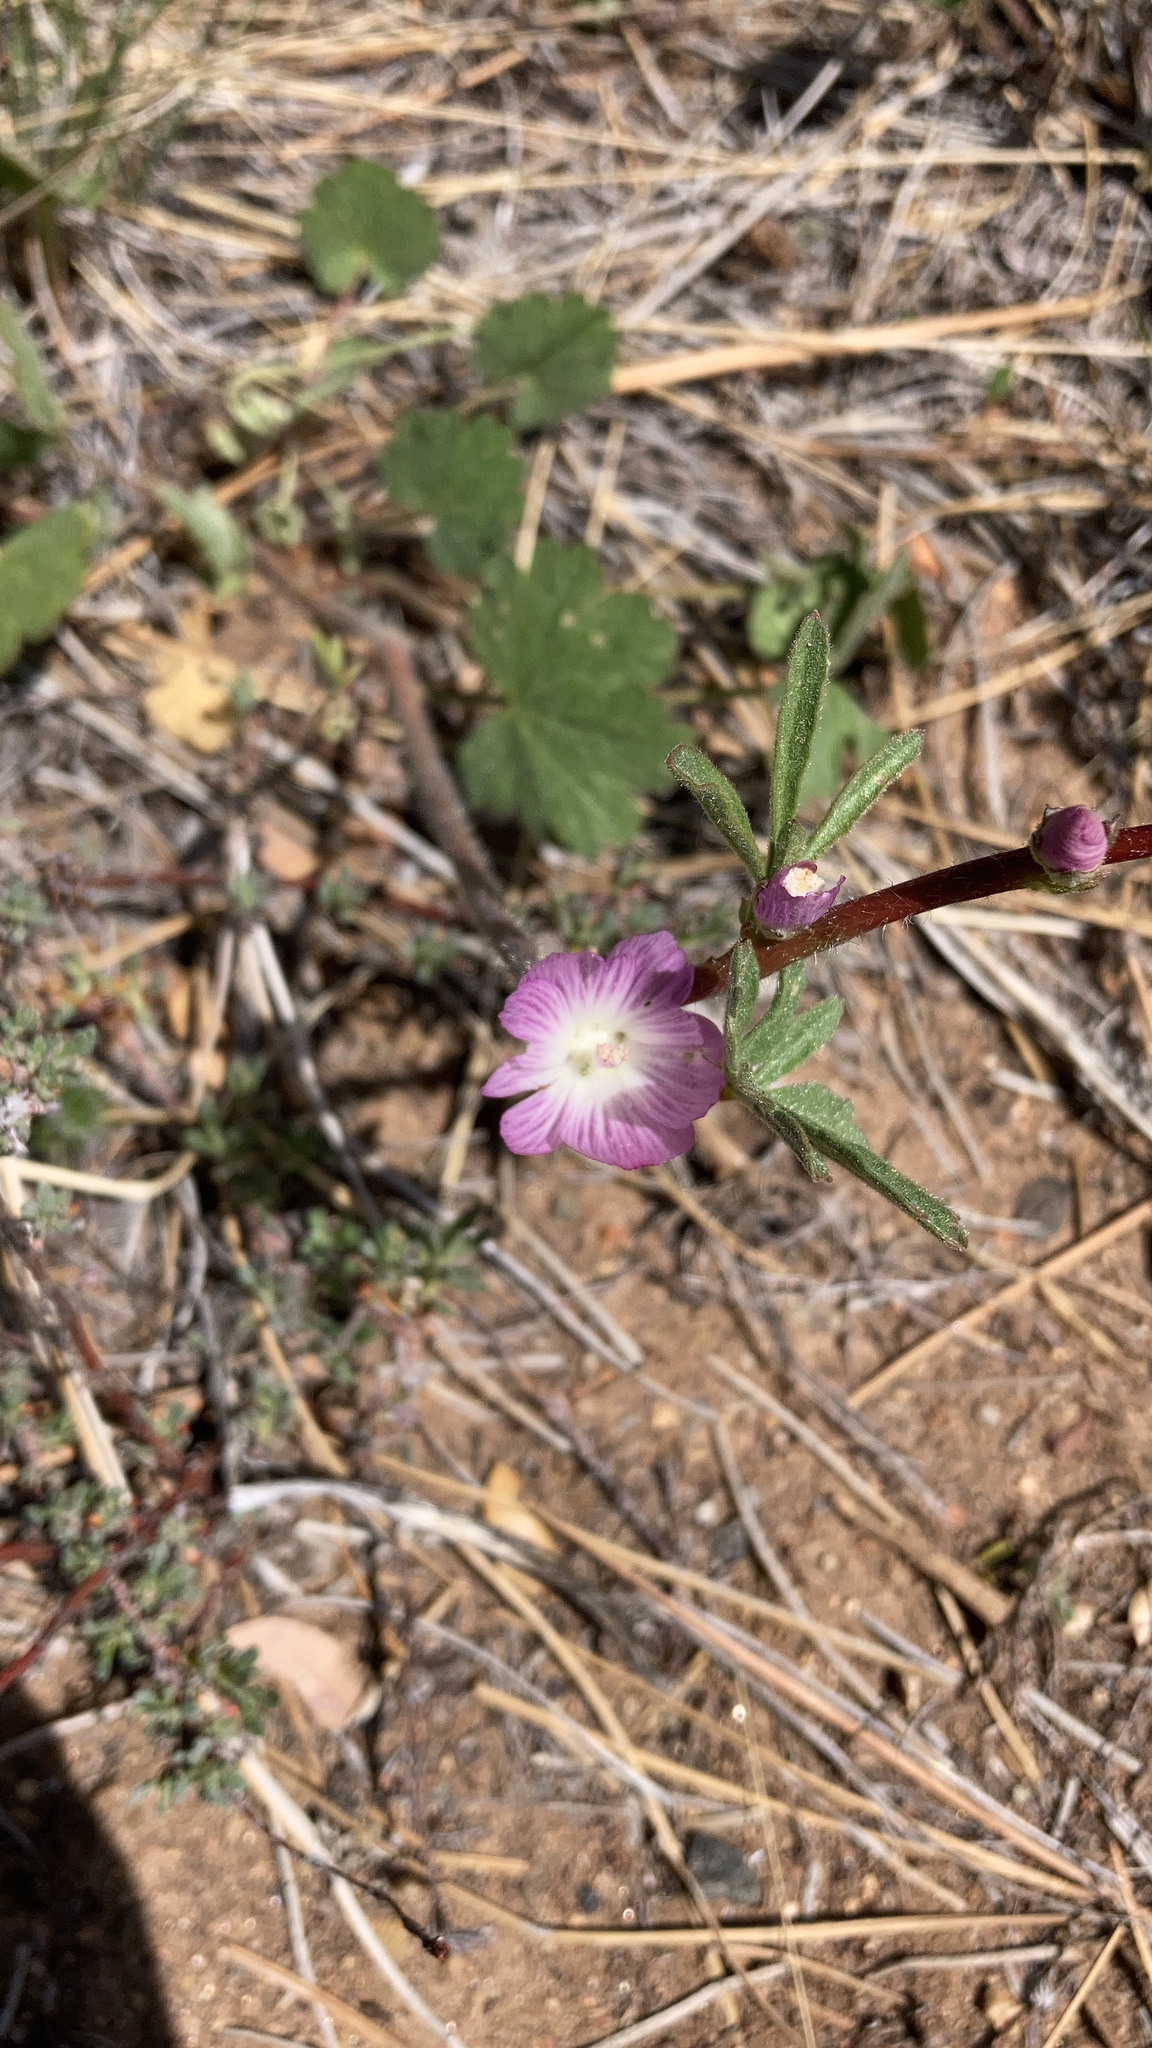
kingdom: Plantae
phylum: Tracheophyta
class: Magnoliopsida
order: Malvales
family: Malvaceae
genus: Sidalcea
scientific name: Sidalcea sparsifolia
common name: Southern checkerbloom
